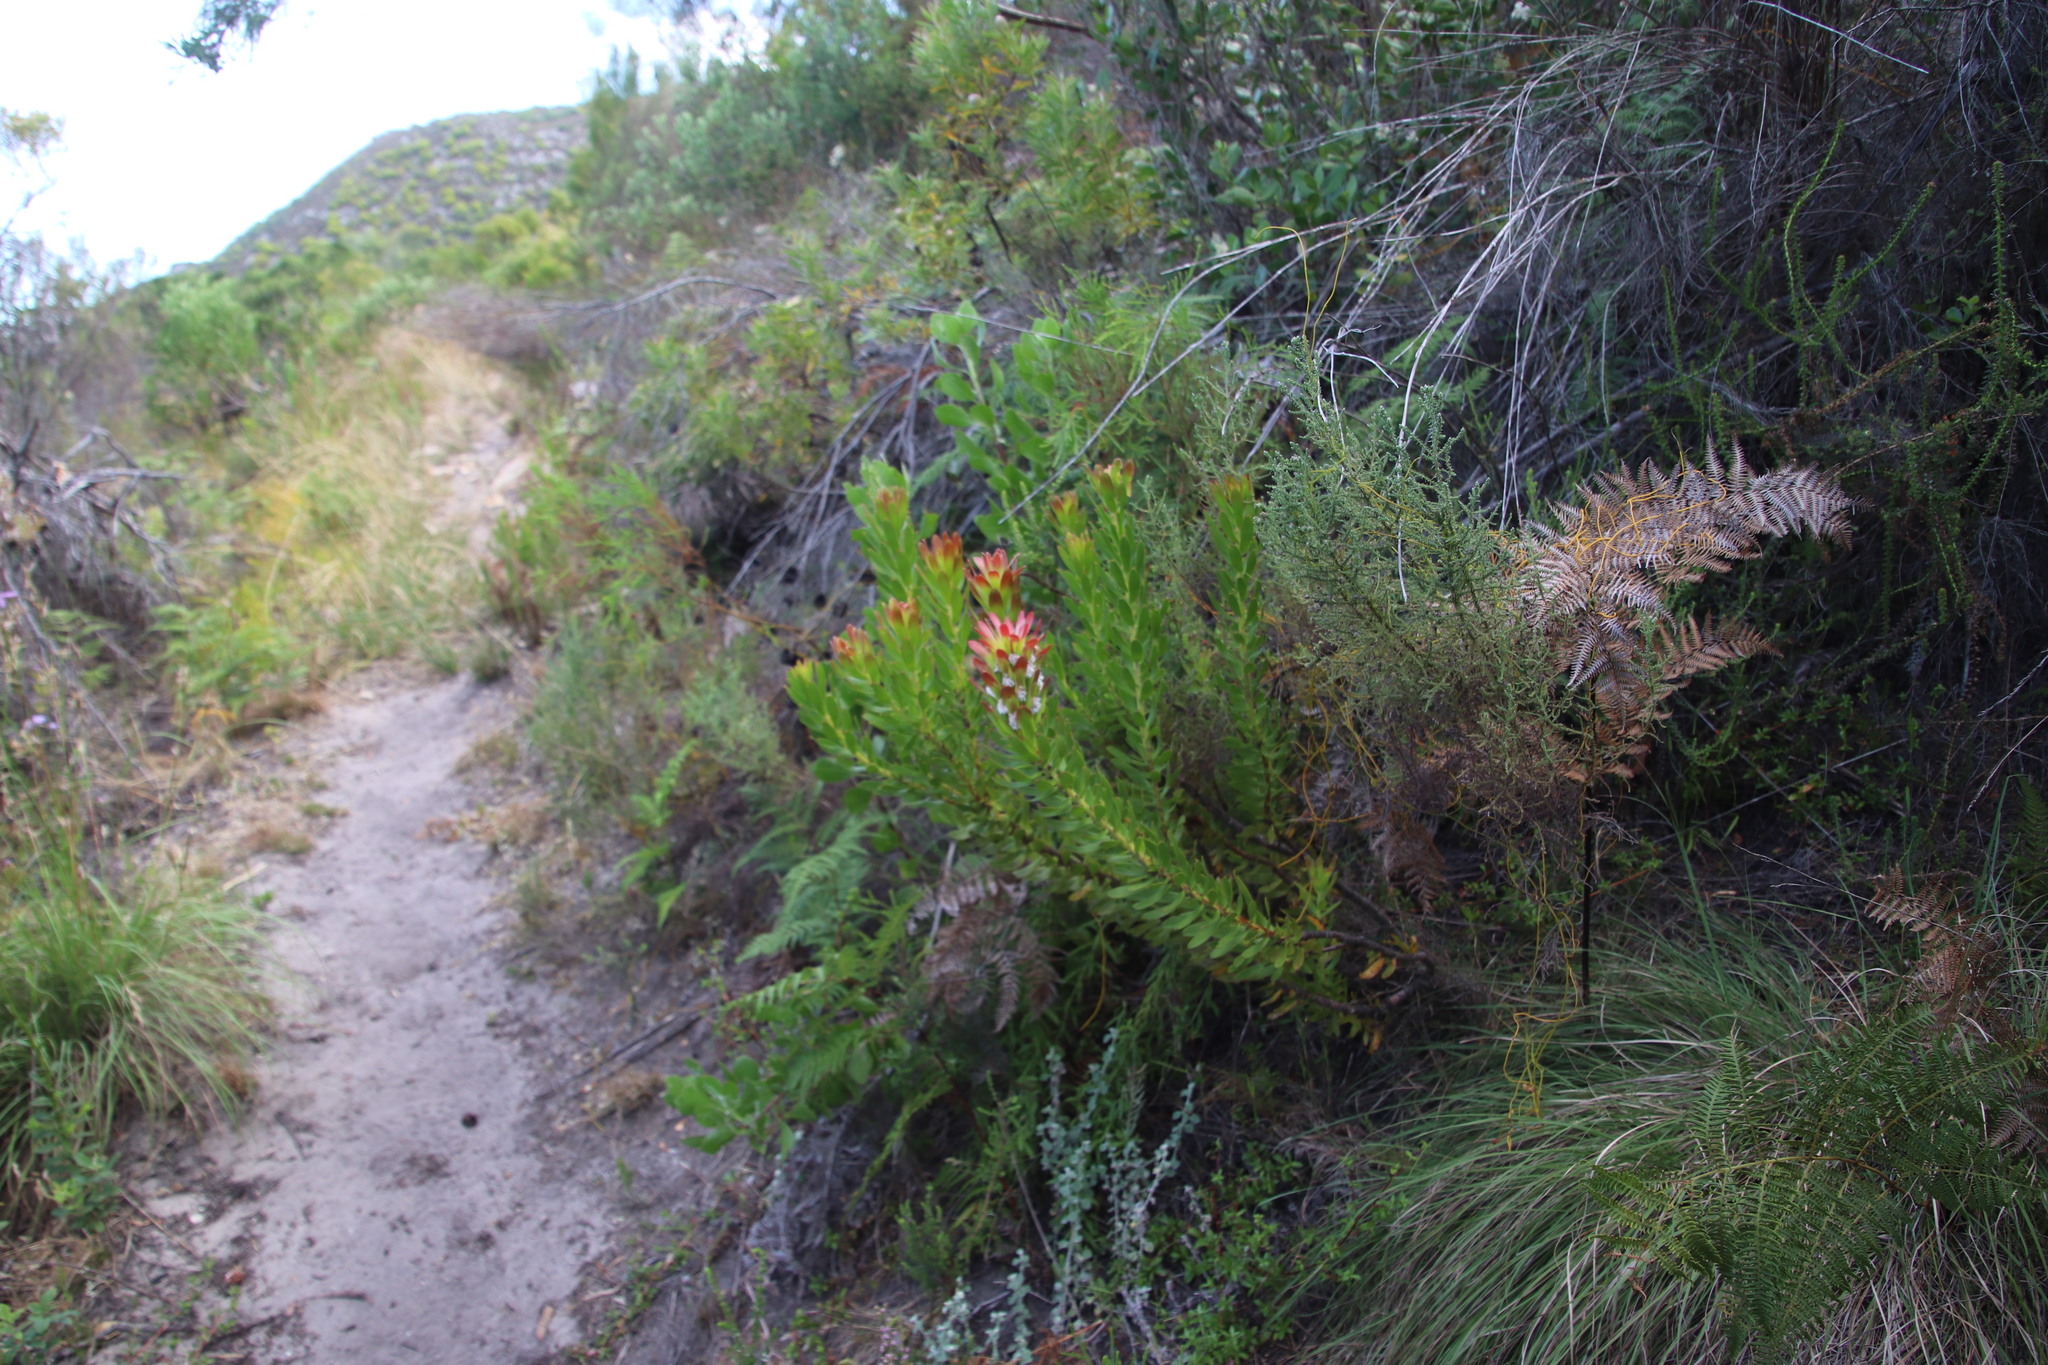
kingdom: Plantae
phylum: Tracheophyta
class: Magnoliopsida
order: Proteales
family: Proteaceae
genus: Mimetes
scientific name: Mimetes cucullatus
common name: Common pagoda
